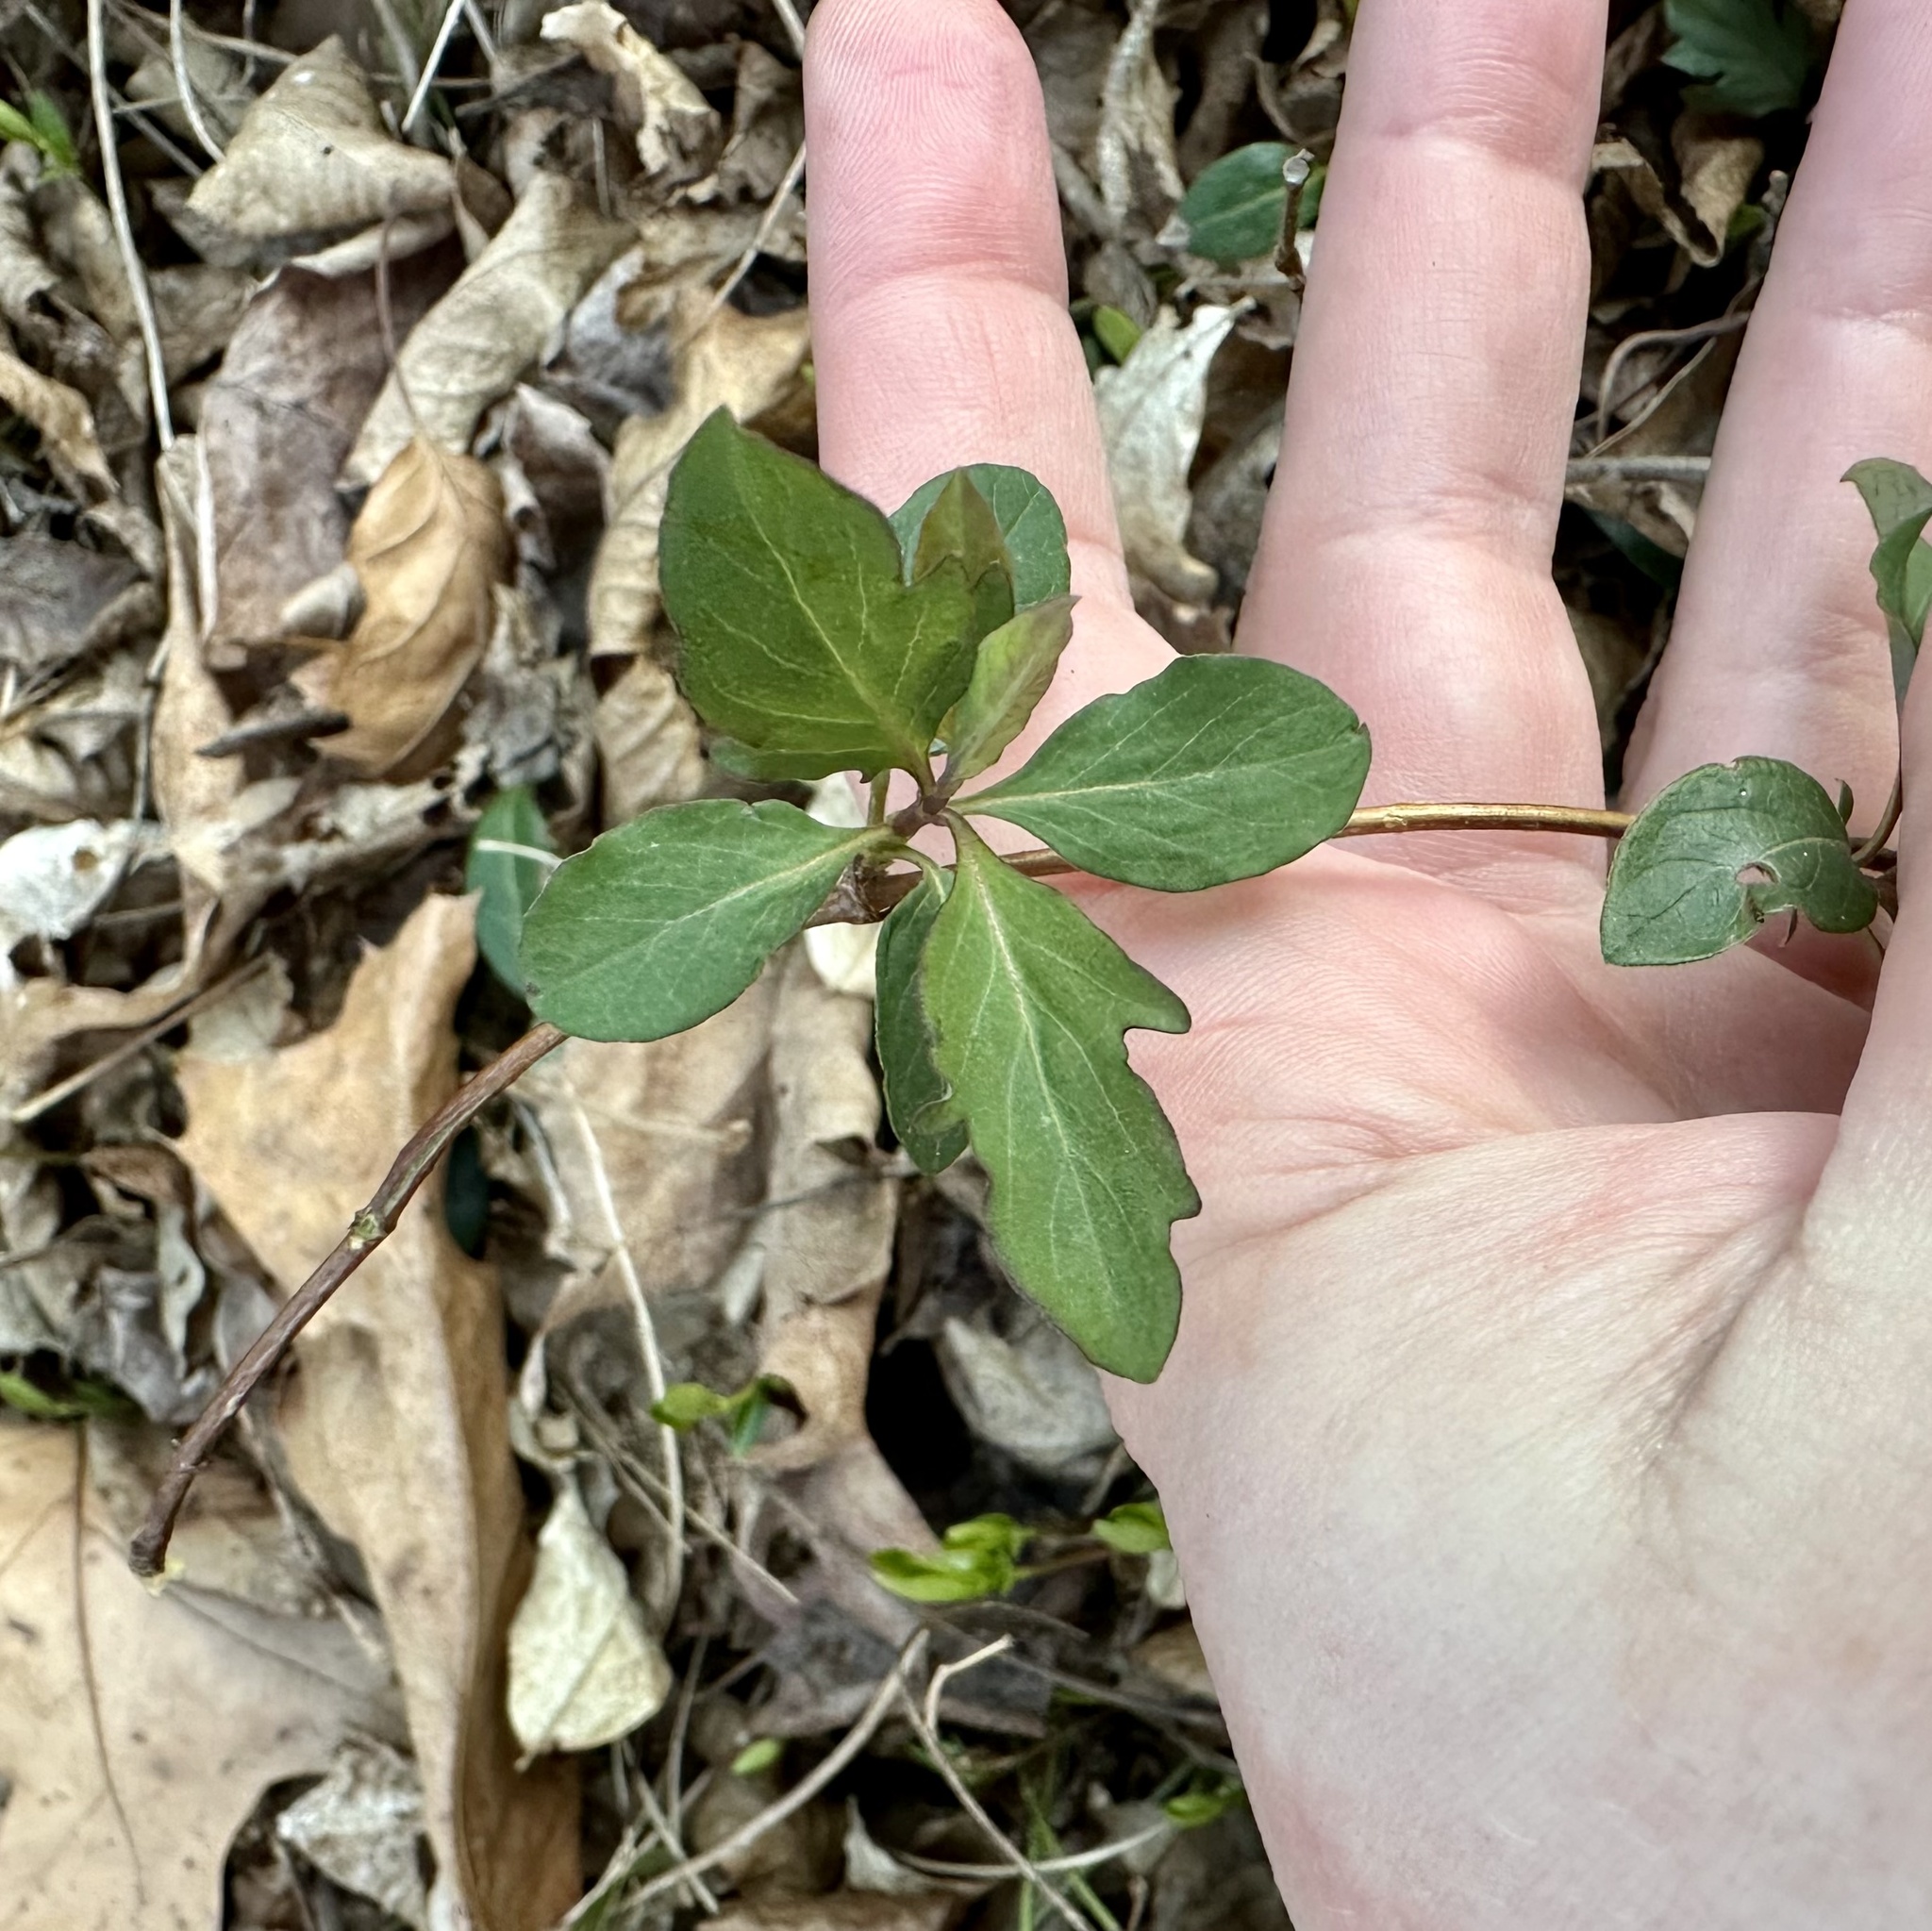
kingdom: Plantae
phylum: Tracheophyta
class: Magnoliopsida
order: Dipsacales
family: Caprifoliaceae
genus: Lonicera
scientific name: Lonicera japonica
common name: Japanese honeysuckle
